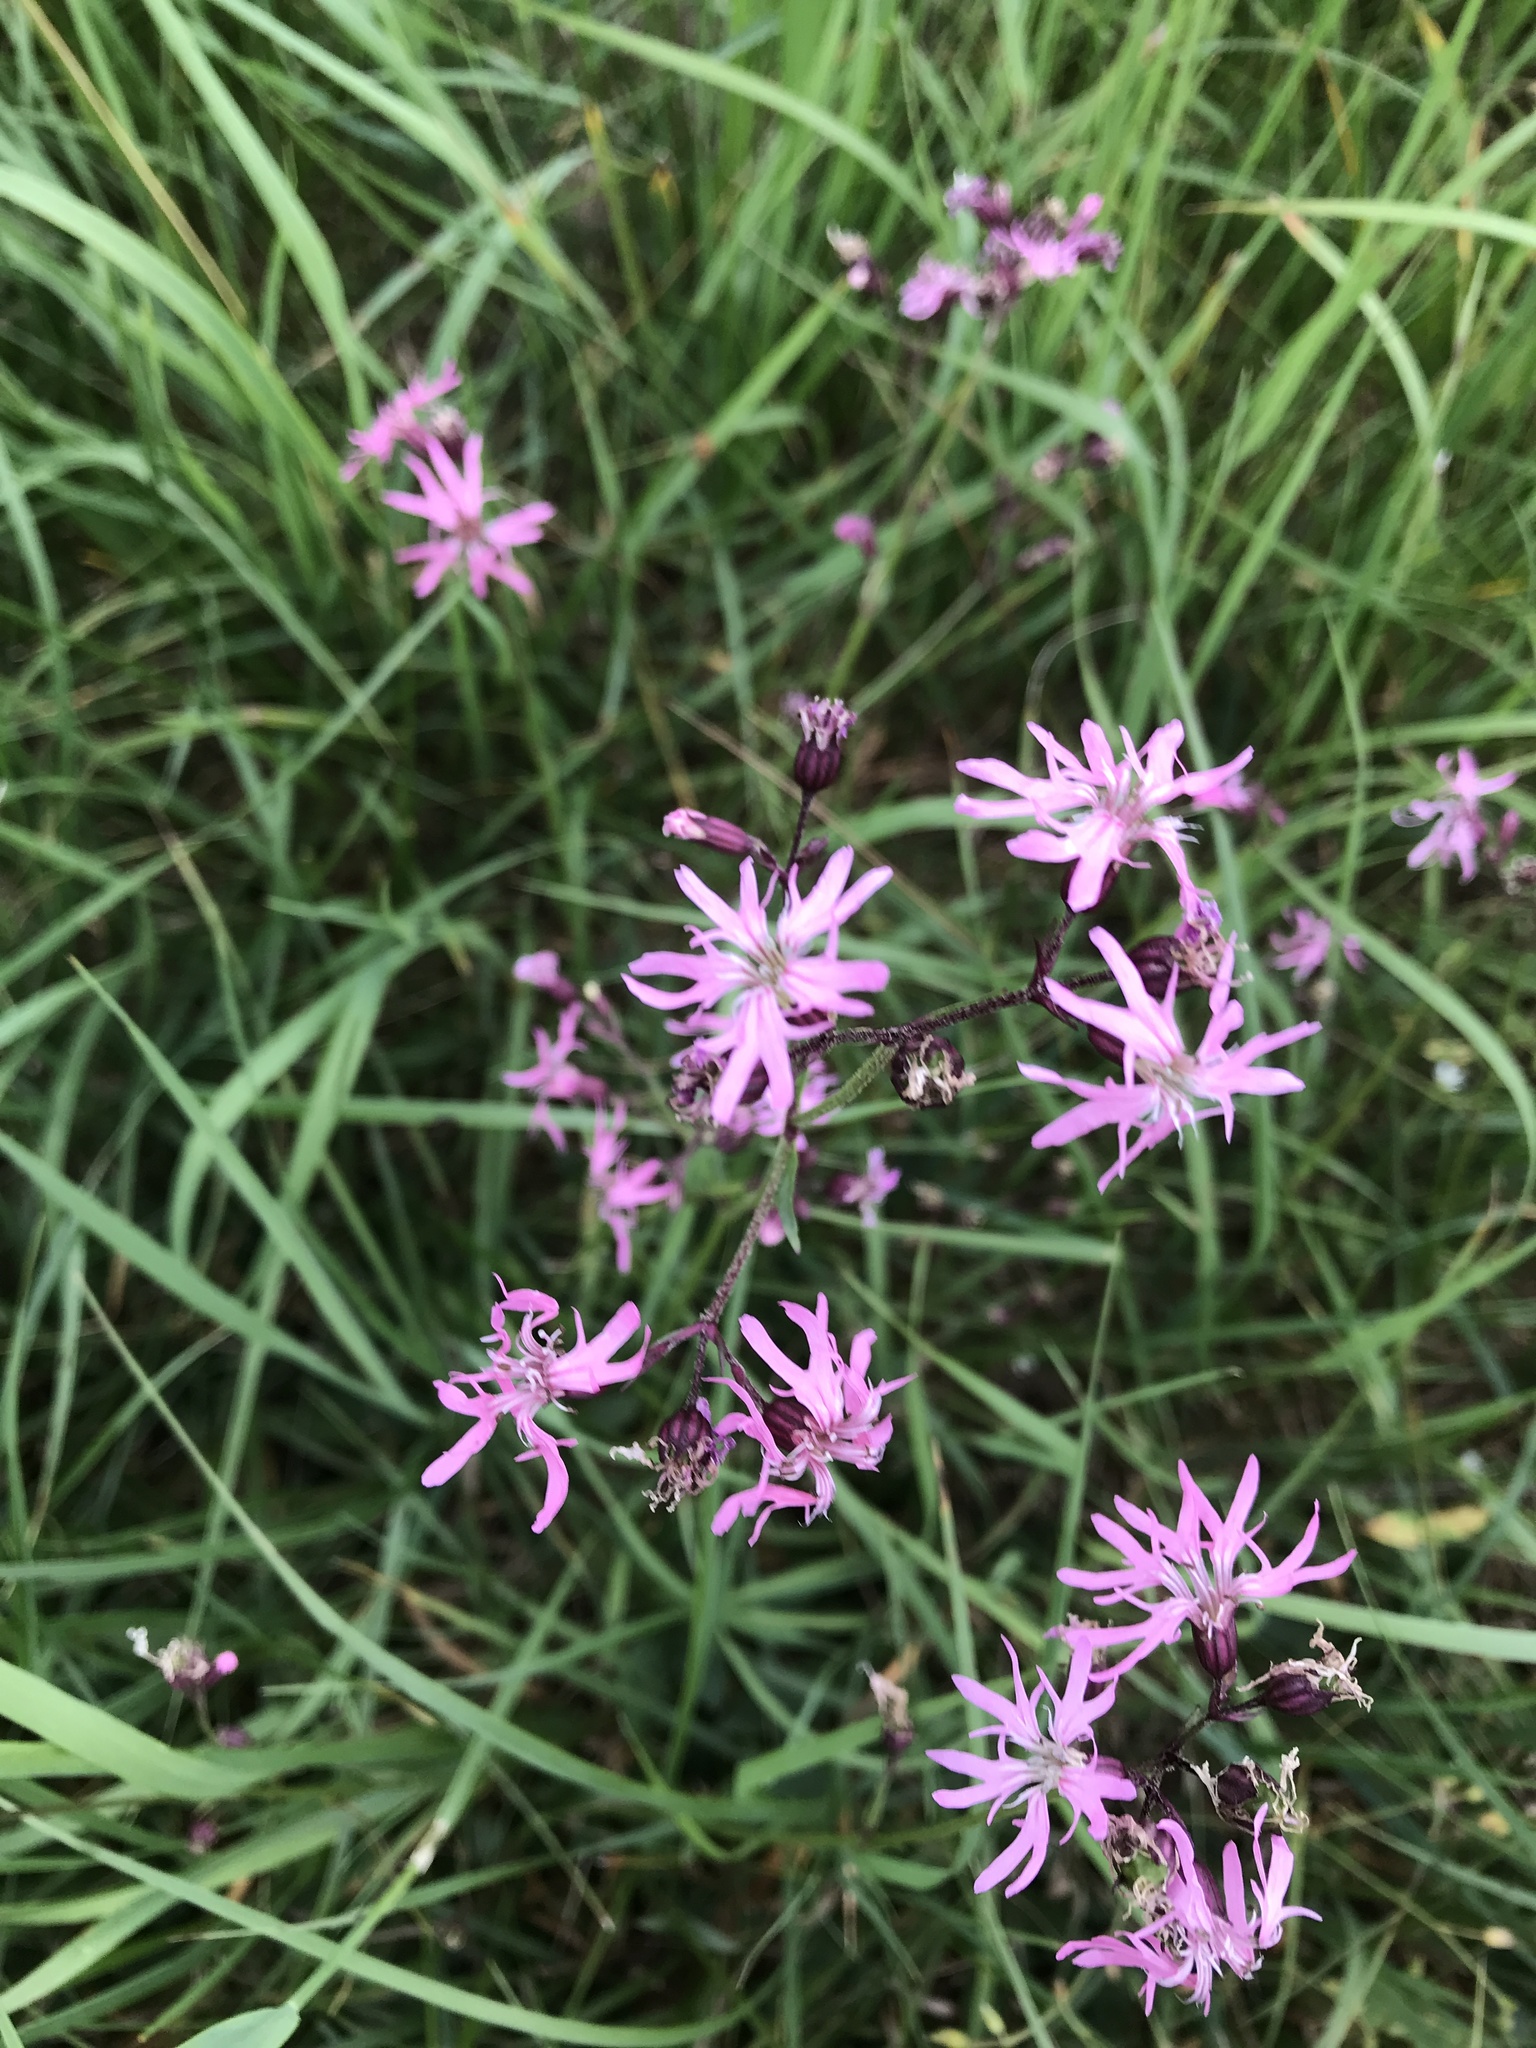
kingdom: Plantae
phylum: Tracheophyta
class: Magnoliopsida
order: Caryophyllales
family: Caryophyllaceae
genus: Silene
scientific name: Silene flos-cuculi
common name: Ragged-robin
